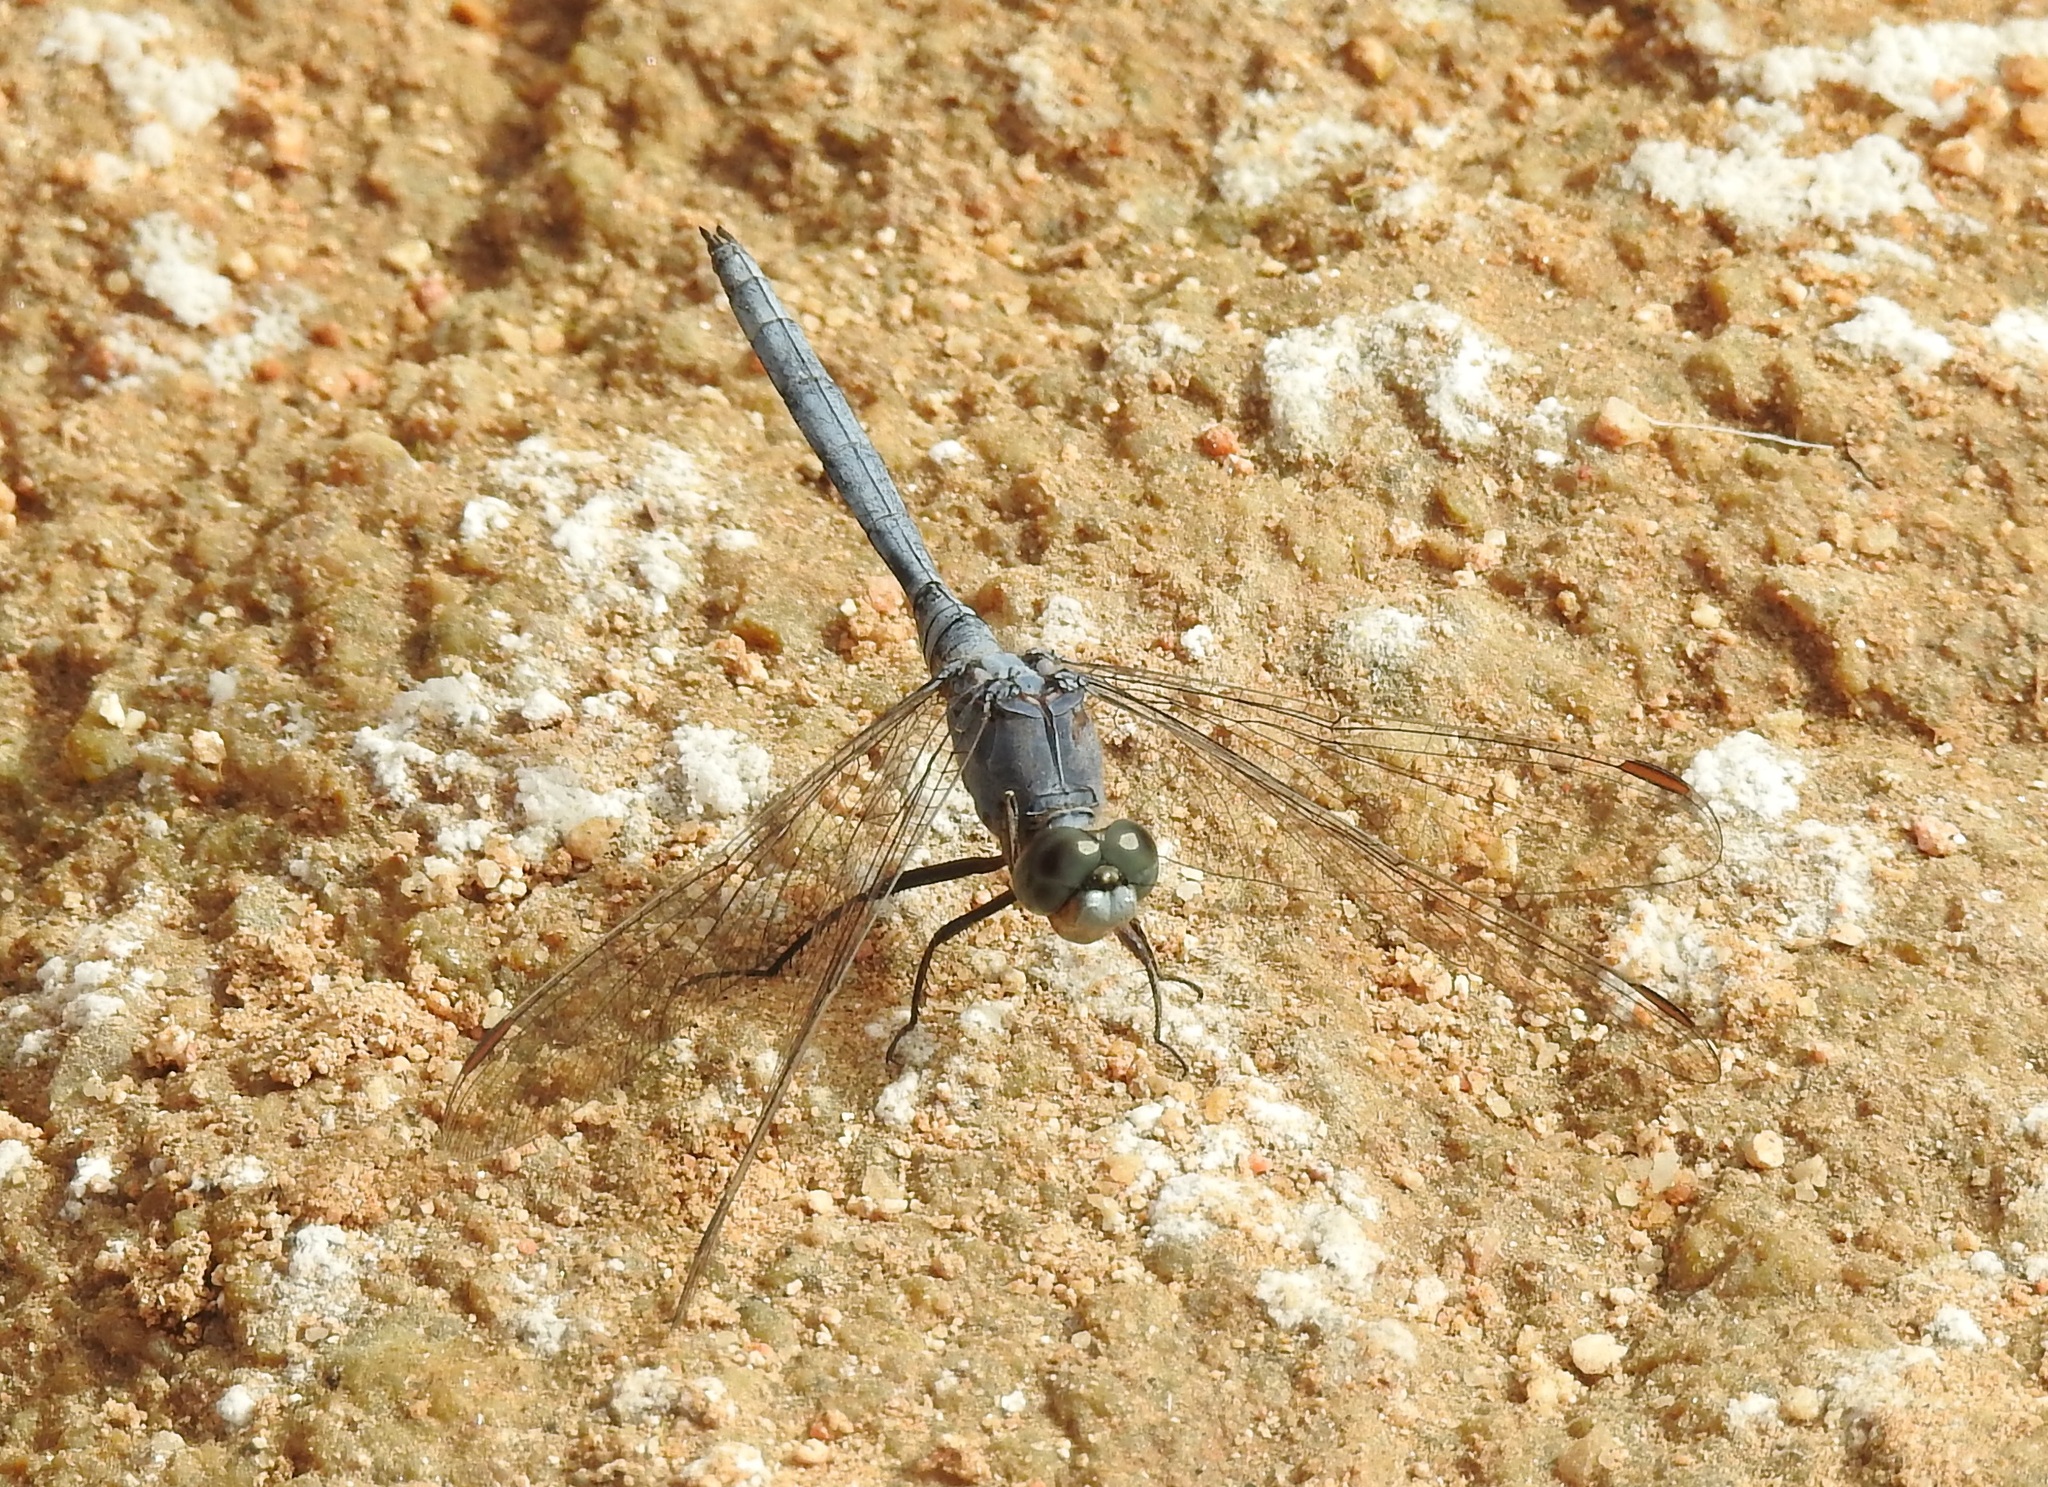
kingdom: Animalia
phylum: Arthropoda
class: Insecta
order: Odonata
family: Libellulidae
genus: Orthetrum
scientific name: Orthetrum chrysostigma
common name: Epaulet skimmer
